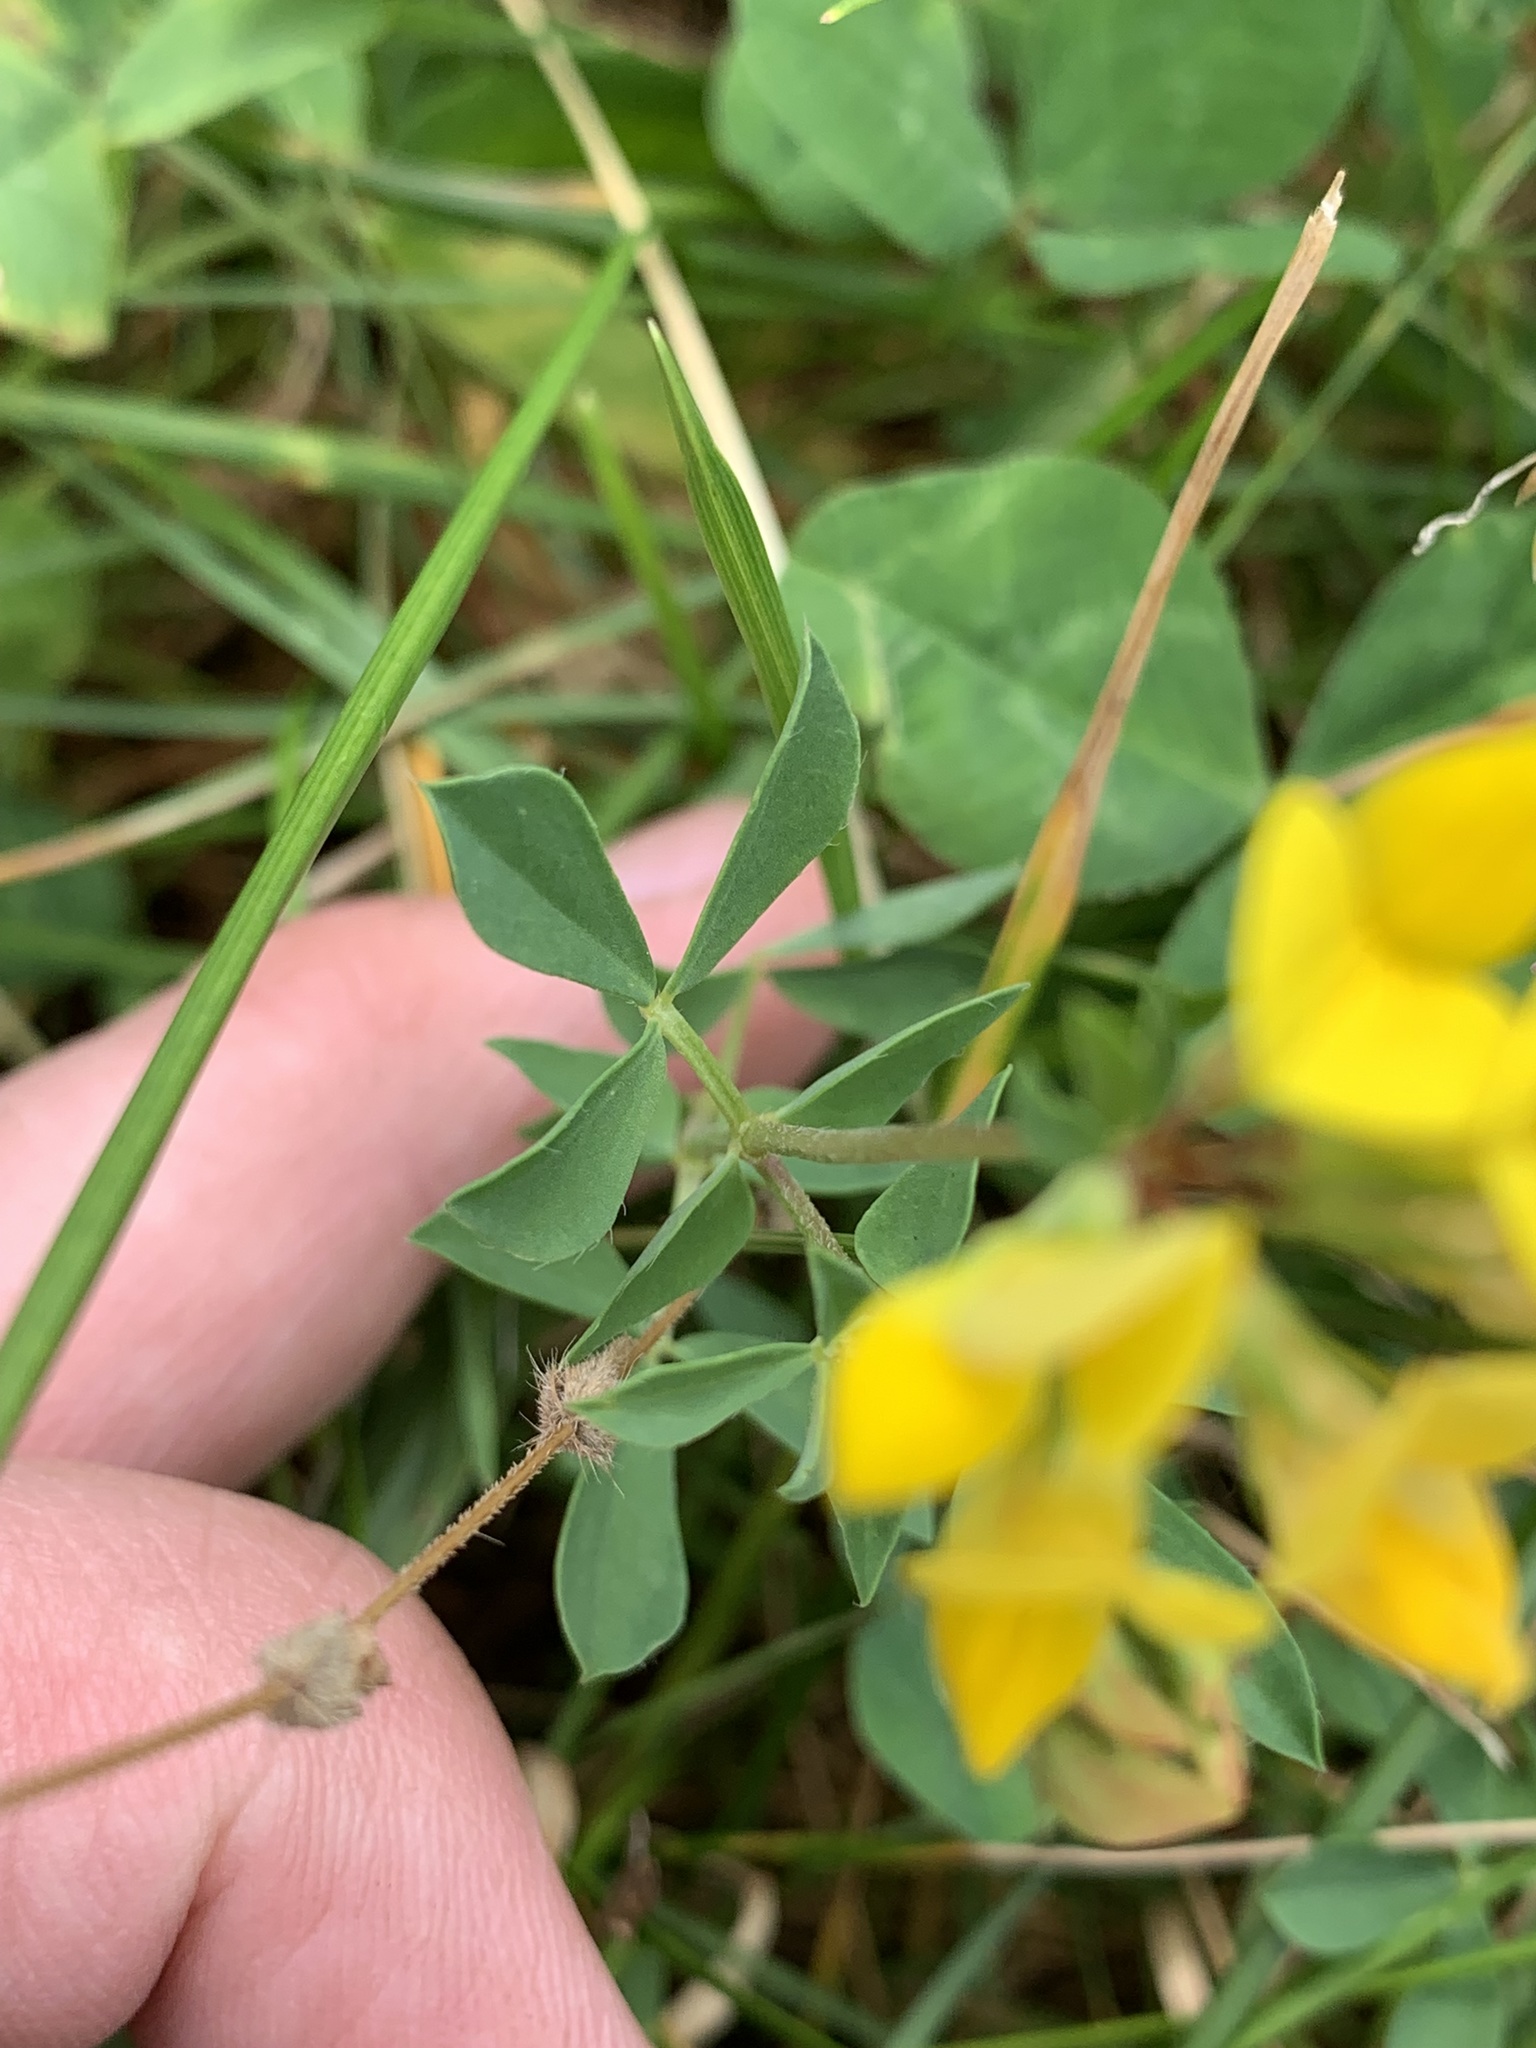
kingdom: Plantae
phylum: Tracheophyta
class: Magnoliopsida
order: Fabales
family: Fabaceae
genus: Lotus
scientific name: Lotus corniculatus
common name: Common bird's-foot-trefoil
